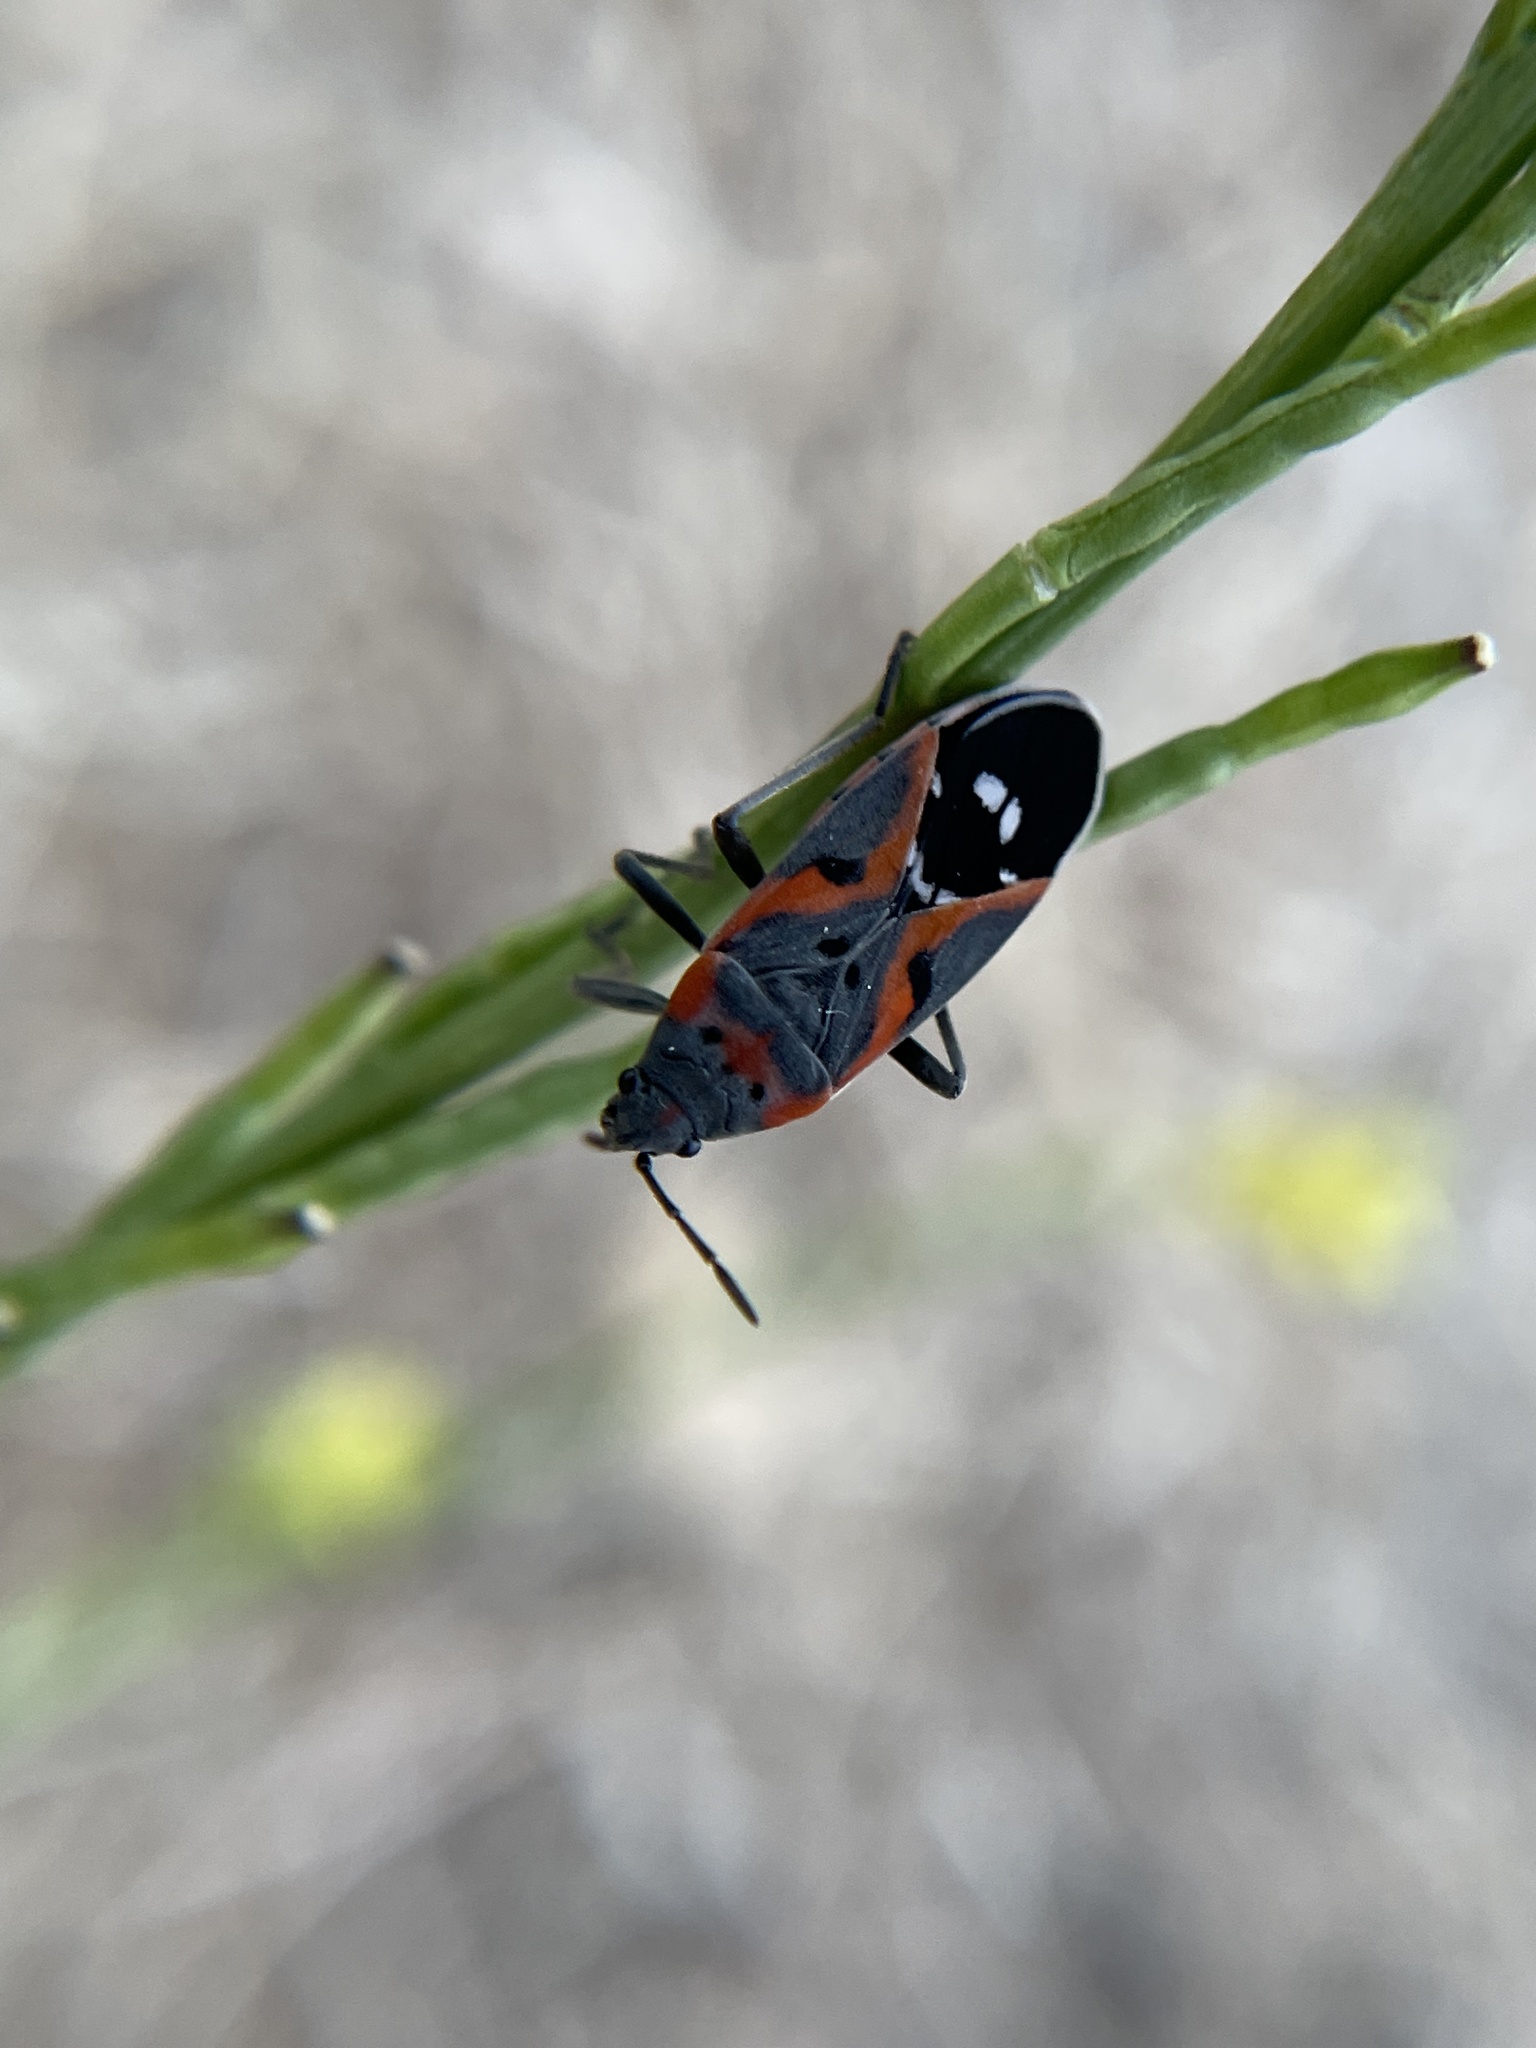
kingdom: Animalia
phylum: Arthropoda
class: Insecta
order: Hemiptera
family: Lygaeidae
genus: Lygaeus
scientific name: Lygaeus kalmii
